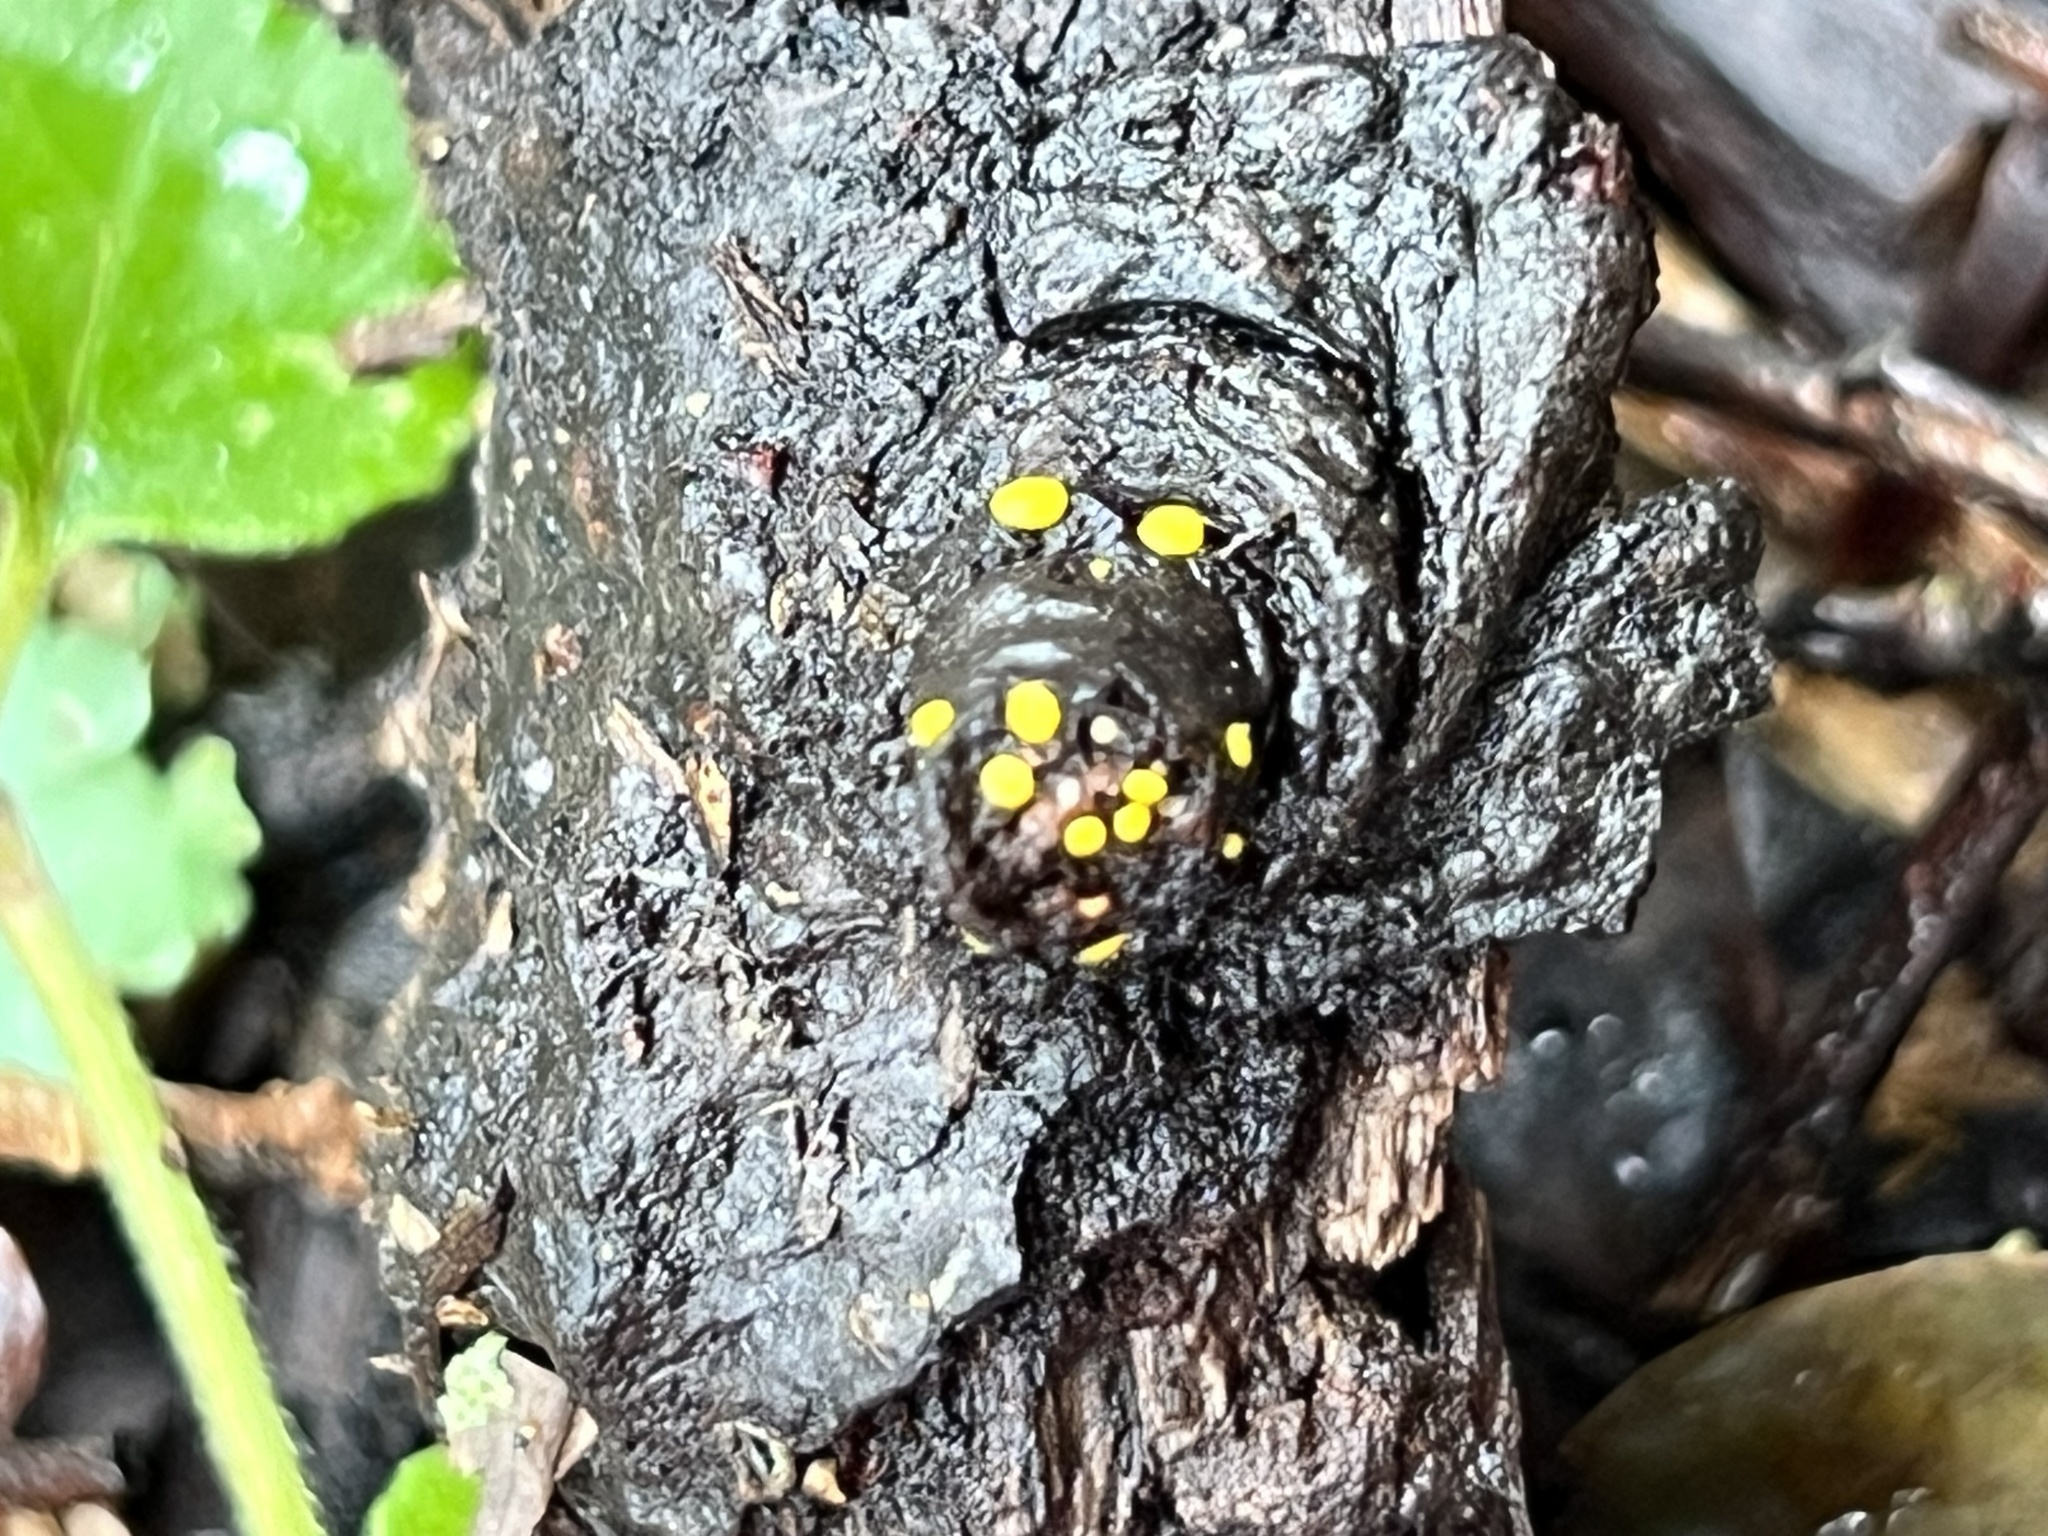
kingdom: Fungi
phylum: Ascomycota
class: Leotiomycetes
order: Helotiales
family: Pezizellaceae
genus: Calycina
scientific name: Calycina claroflava
